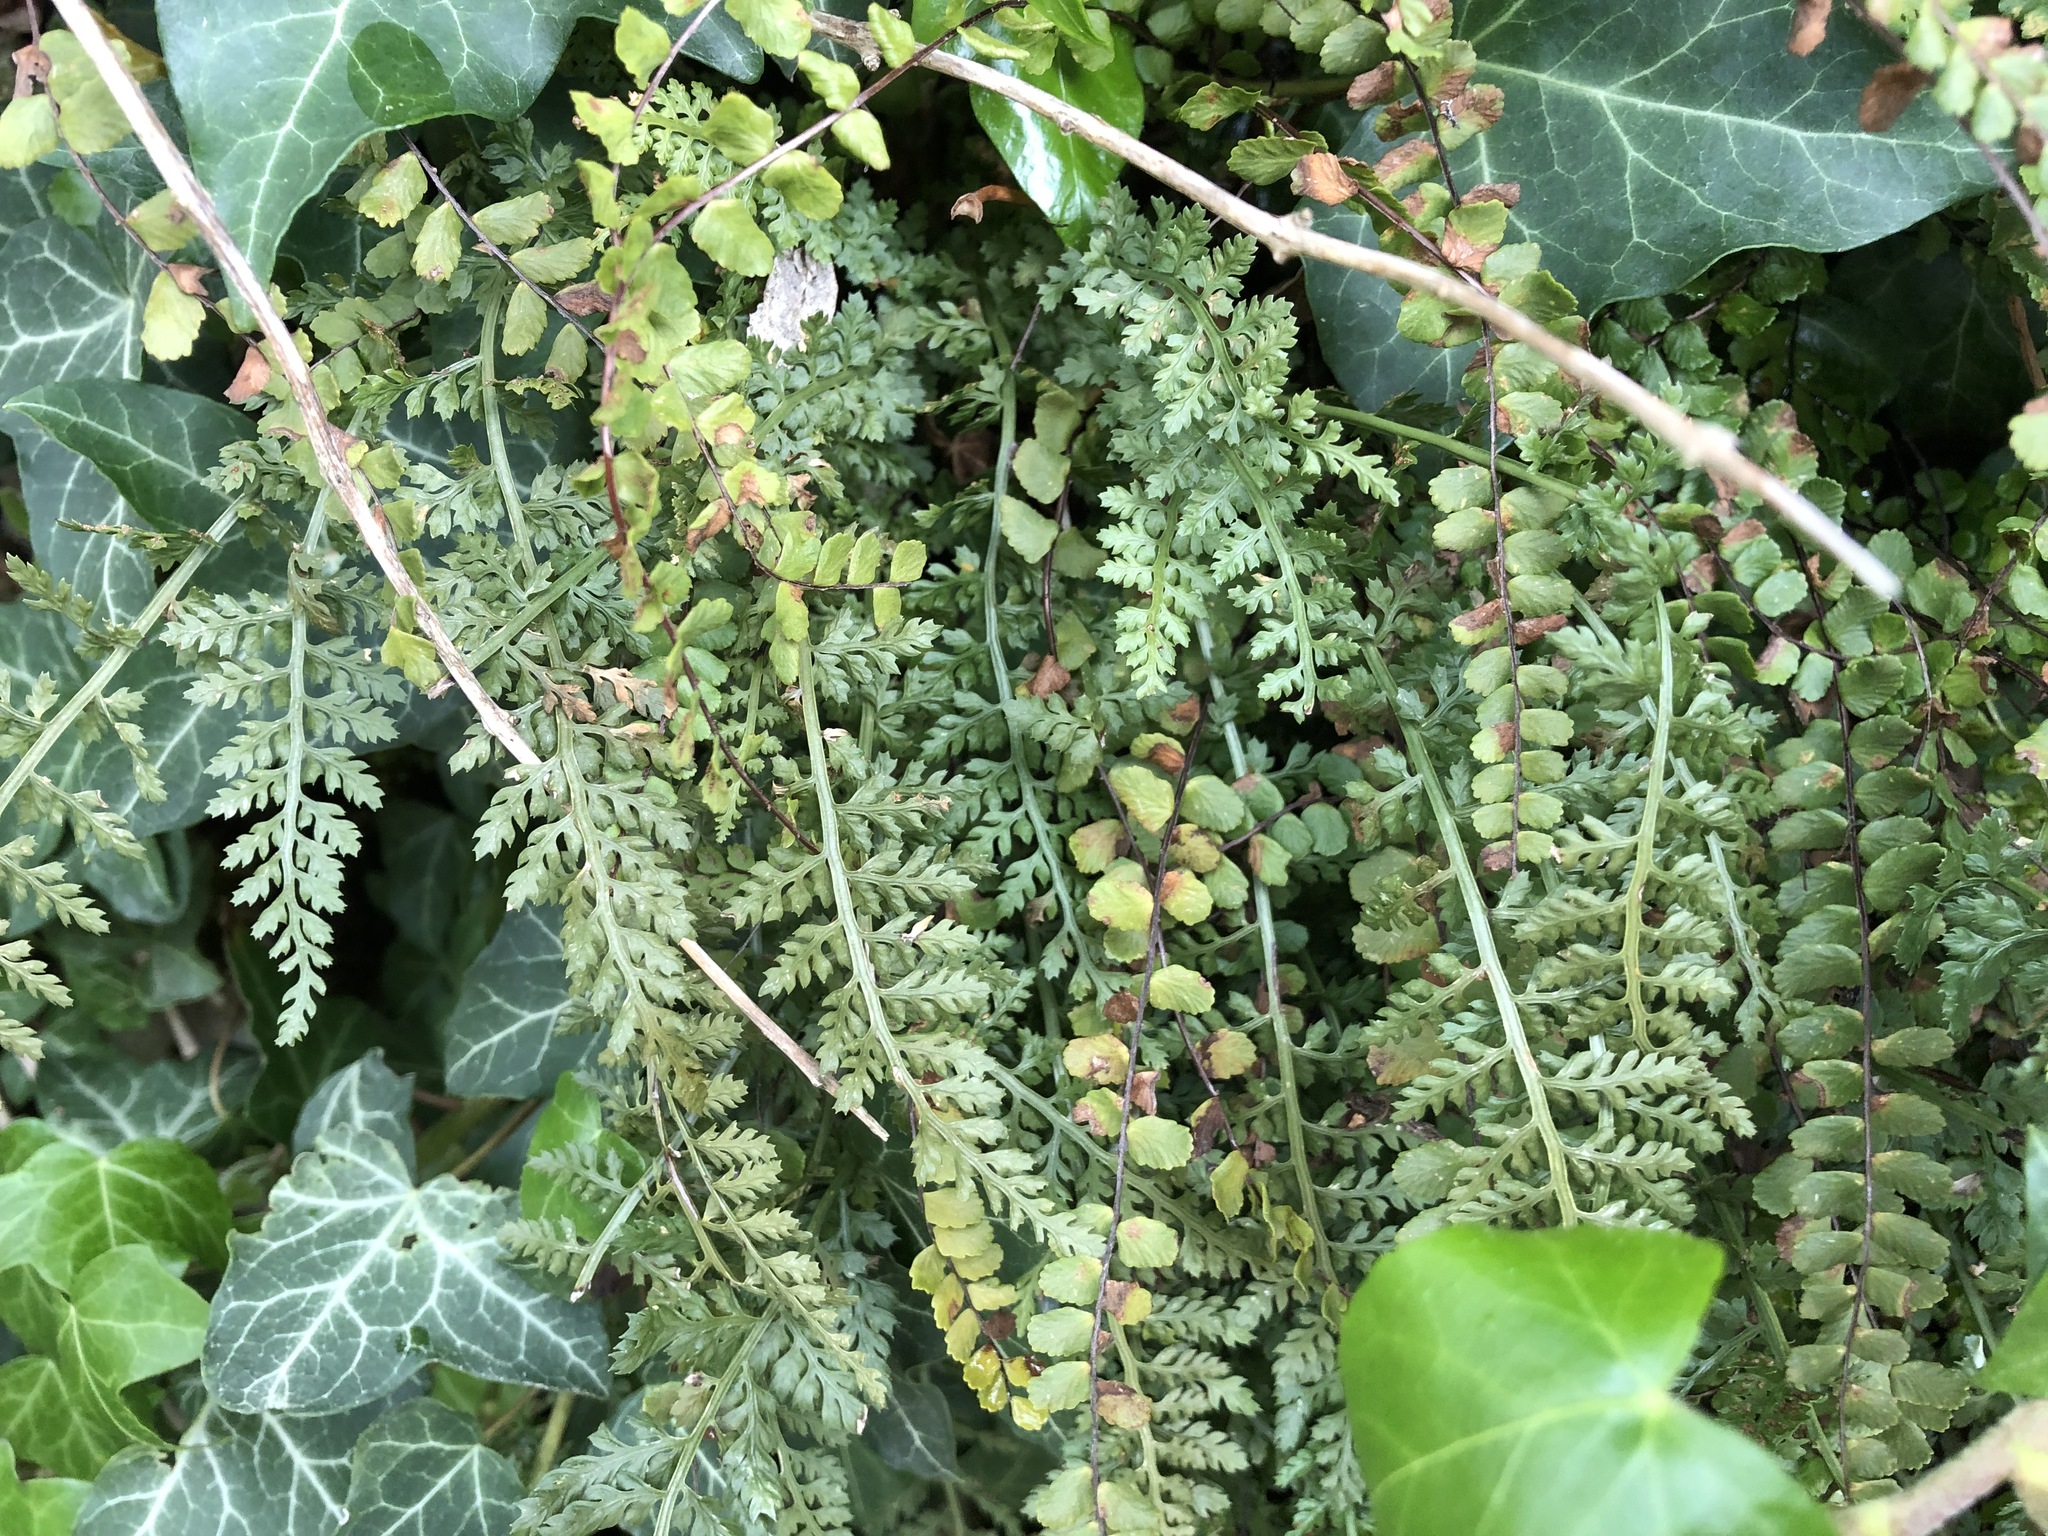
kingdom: Plantae
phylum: Tracheophyta
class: Polypodiopsida
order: Polypodiales
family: Aspleniaceae
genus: Asplenium
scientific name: Asplenium fontanum
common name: Fountain spleenwort
